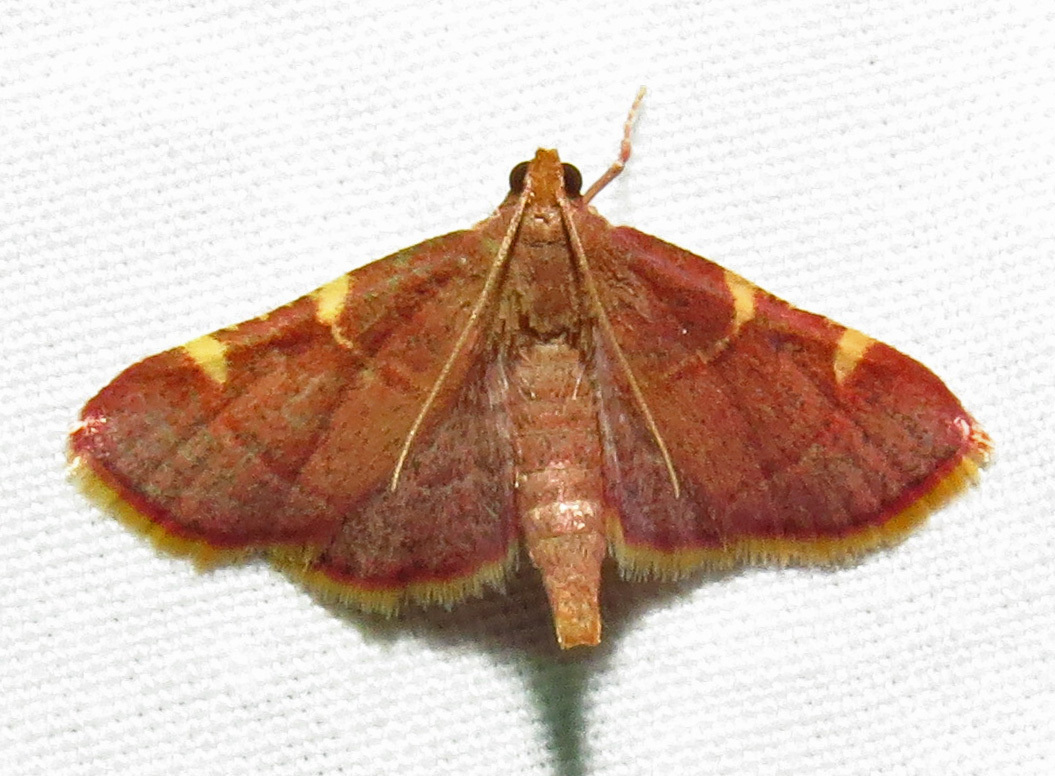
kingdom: Animalia
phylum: Arthropoda
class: Insecta
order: Lepidoptera
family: Pyralidae
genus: Hypsopygia
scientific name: Hypsopygia olinalis
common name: Yellow-fringed dolichomia moth
